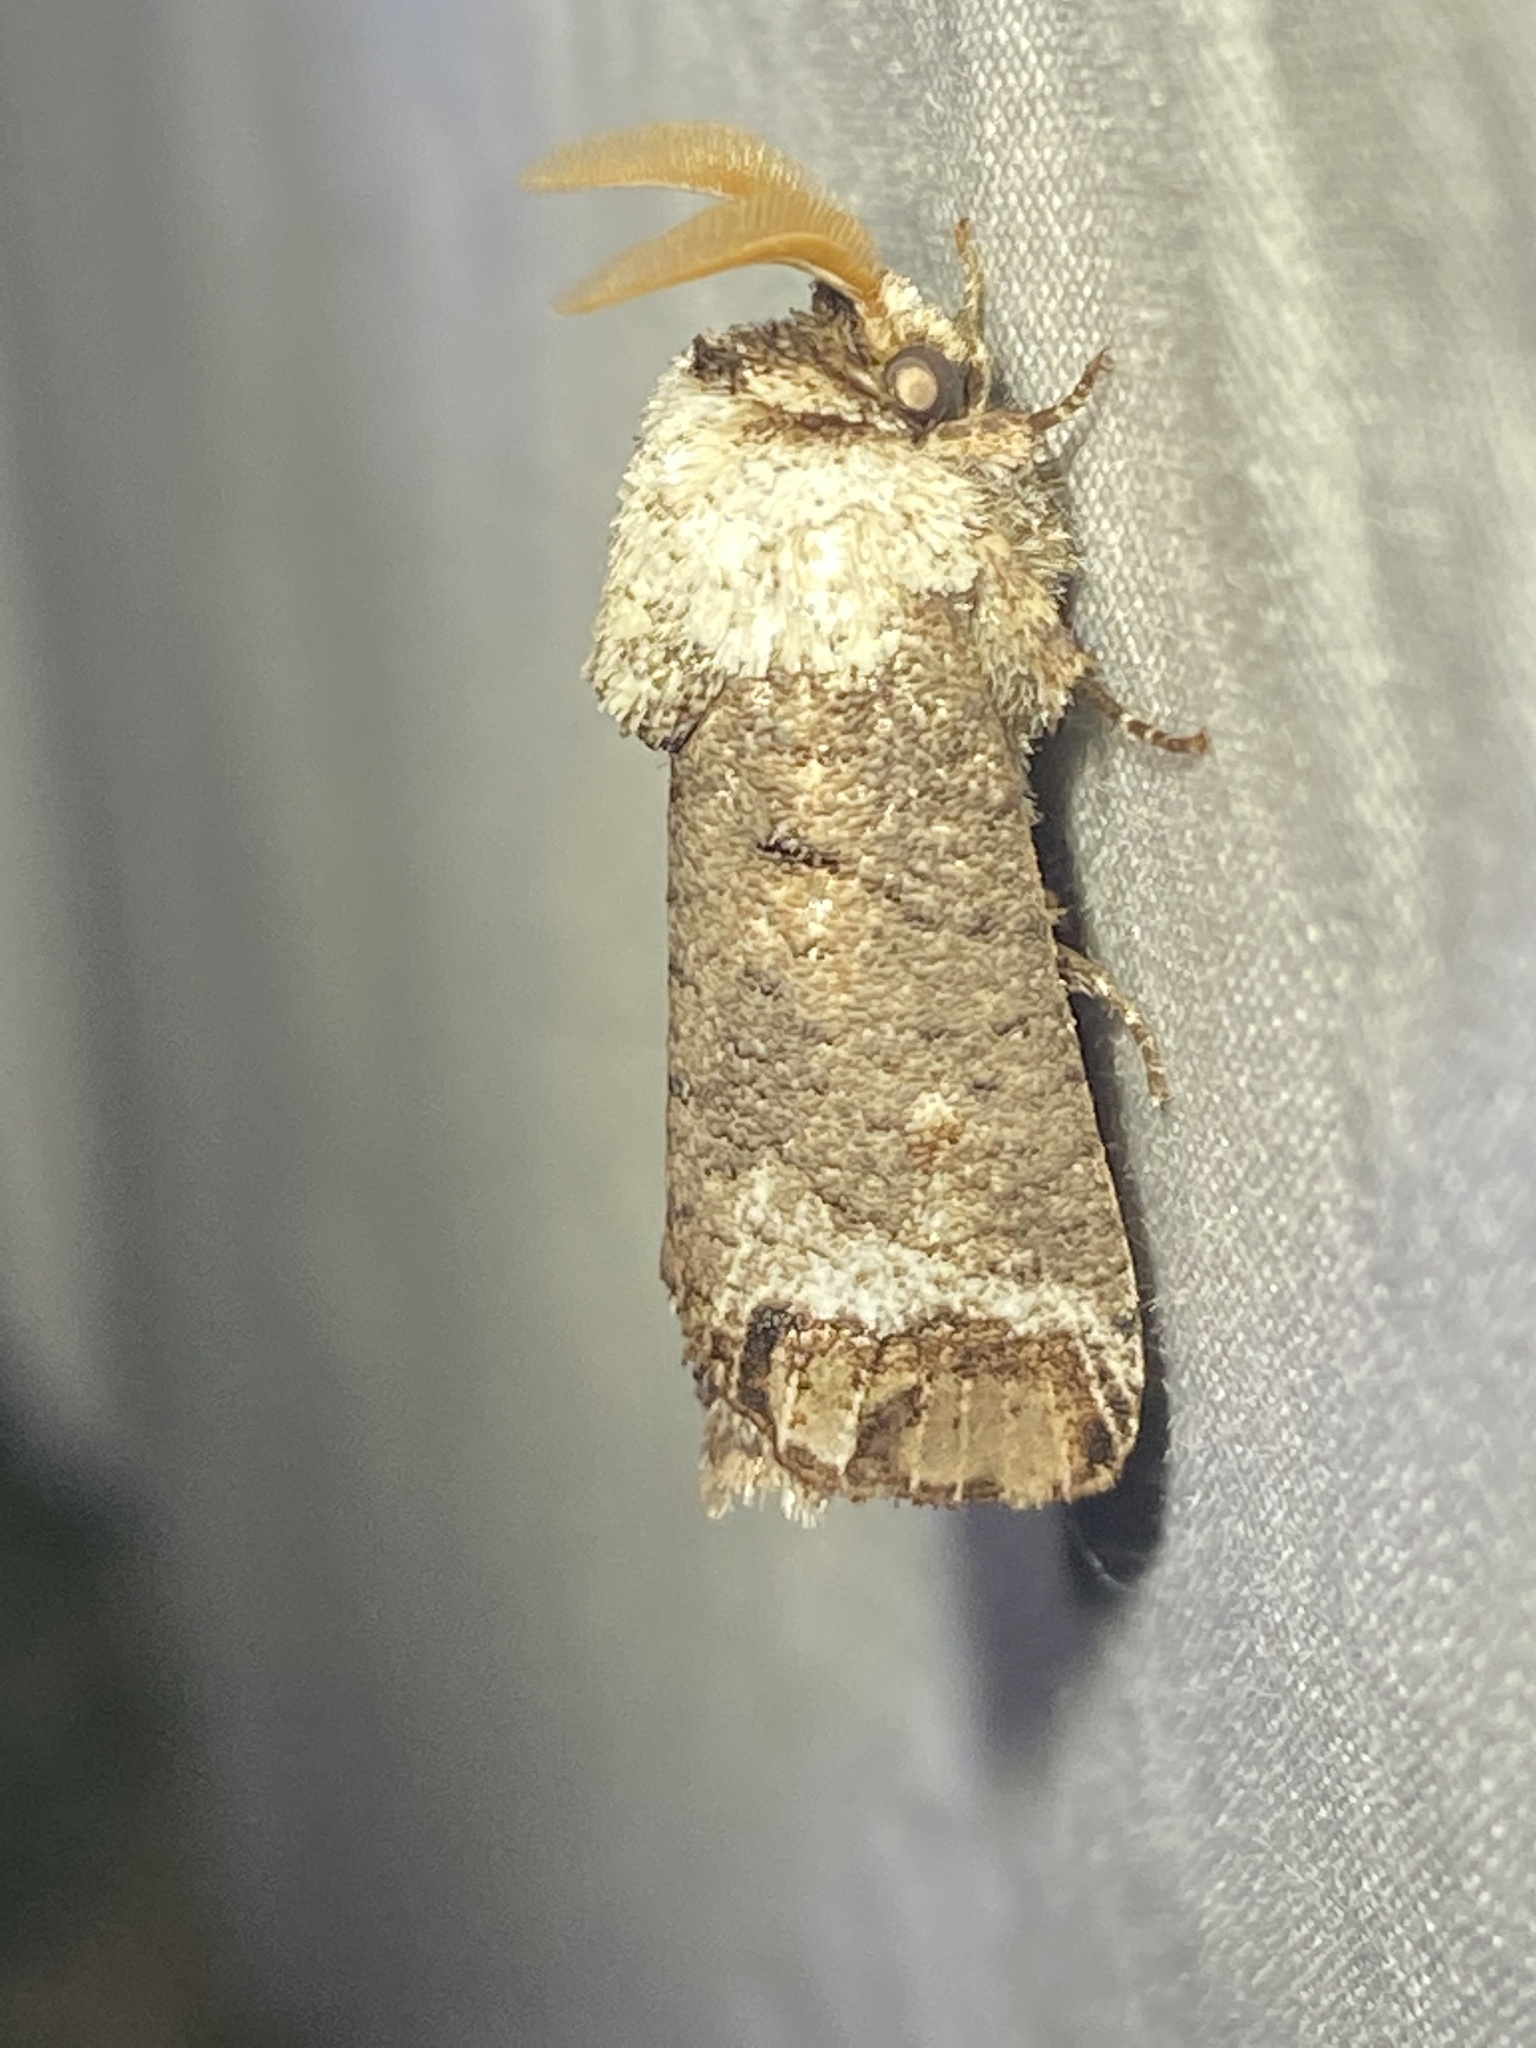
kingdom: Animalia
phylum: Arthropoda
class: Insecta
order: Lepidoptera
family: Cossidae
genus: Cossula
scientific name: Cossula magnifica
